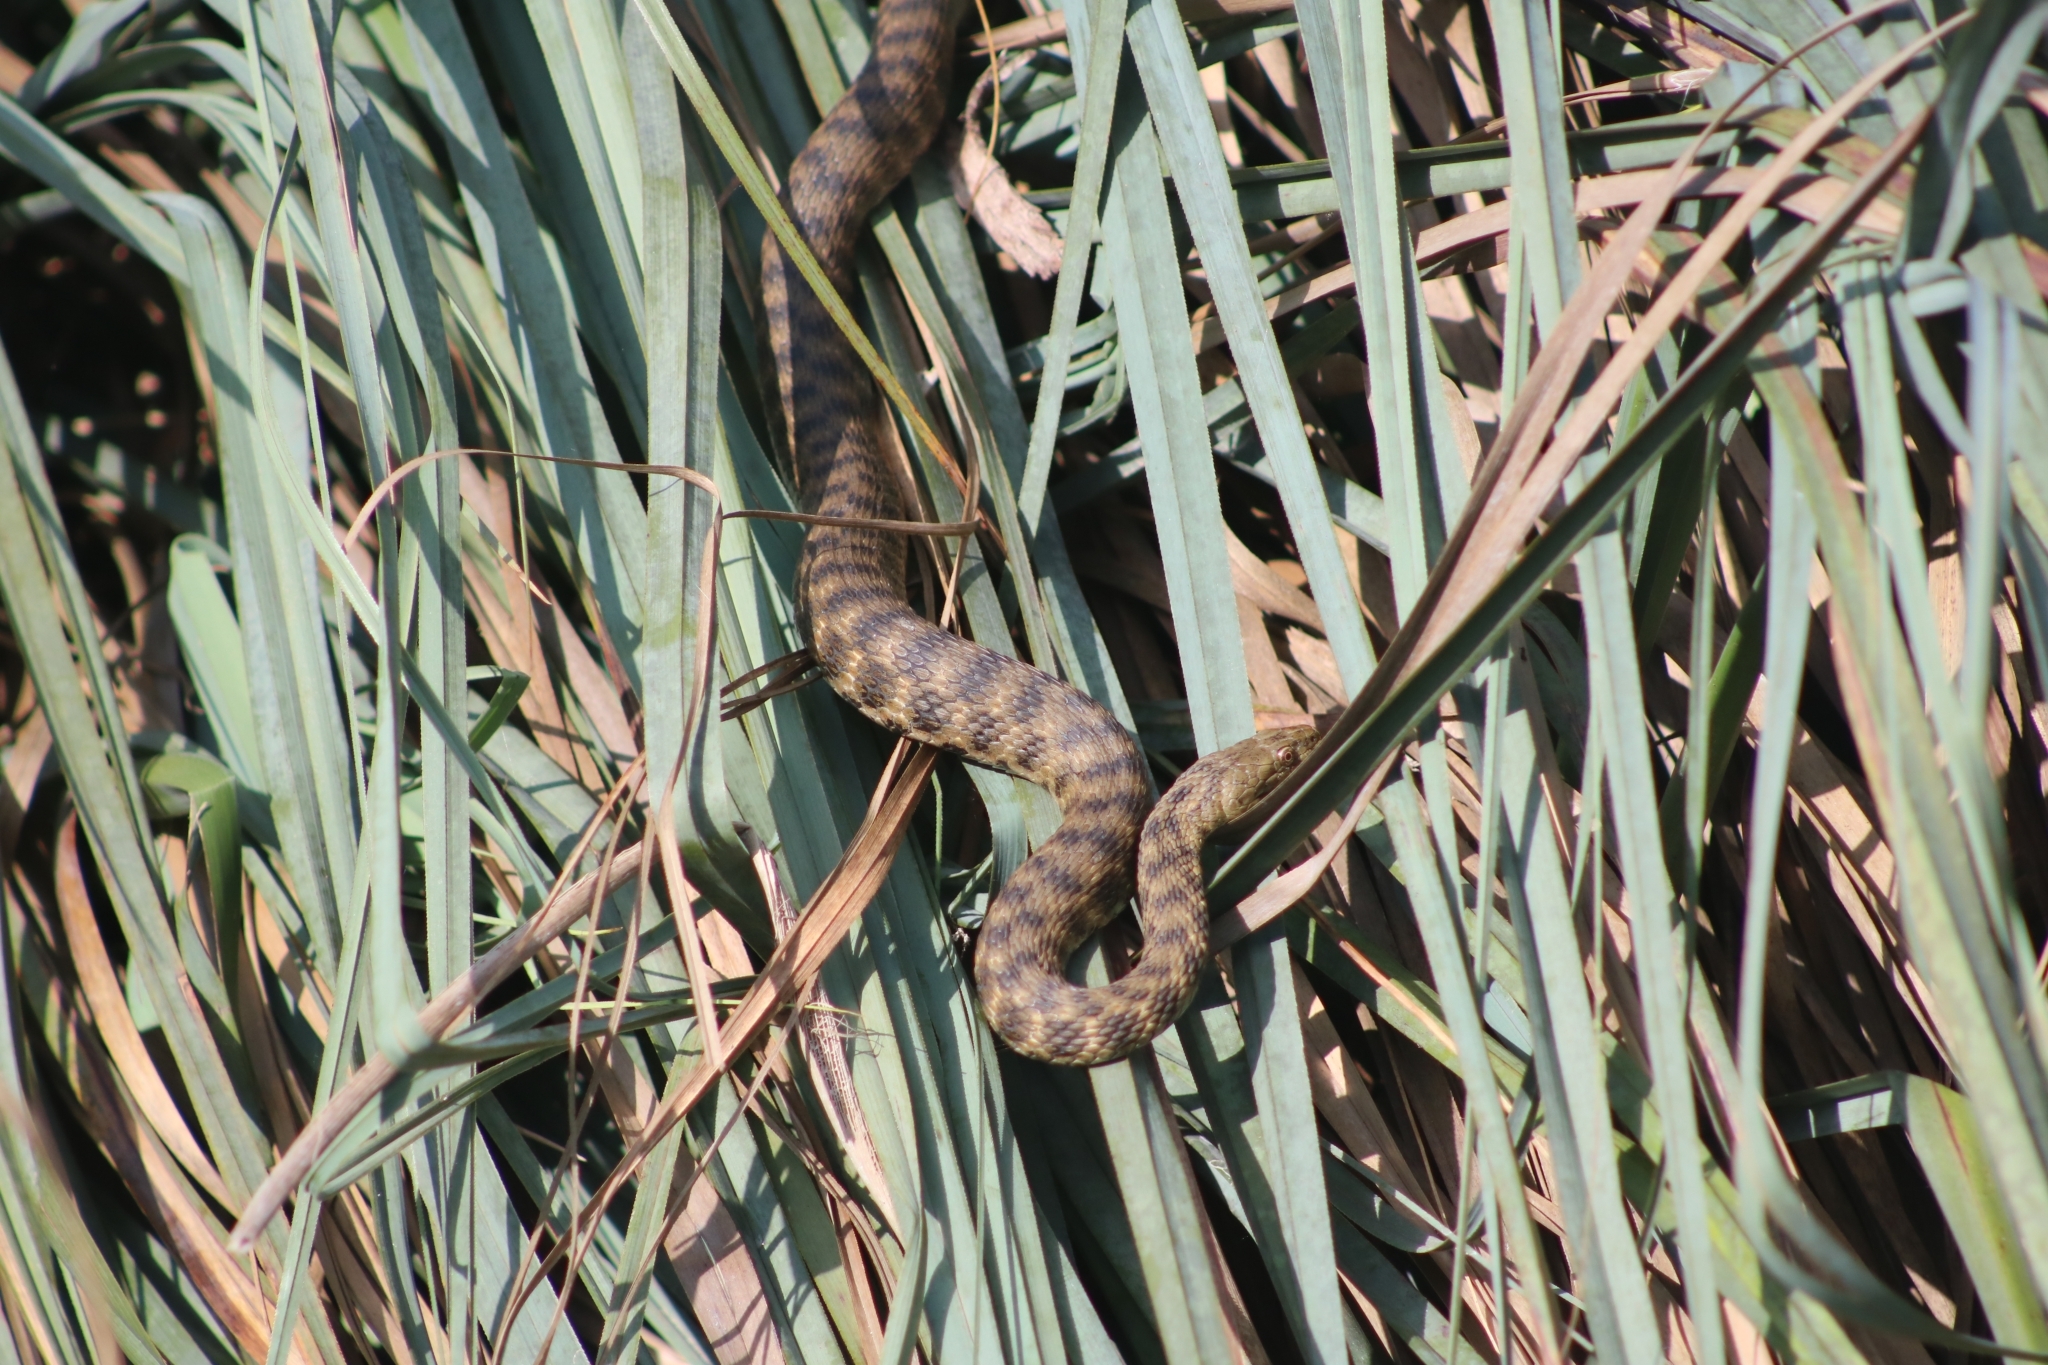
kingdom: Animalia
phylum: Chordata
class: Squamata
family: Colubridae
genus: Natrix
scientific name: Natrix tessellata
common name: Dice snake
